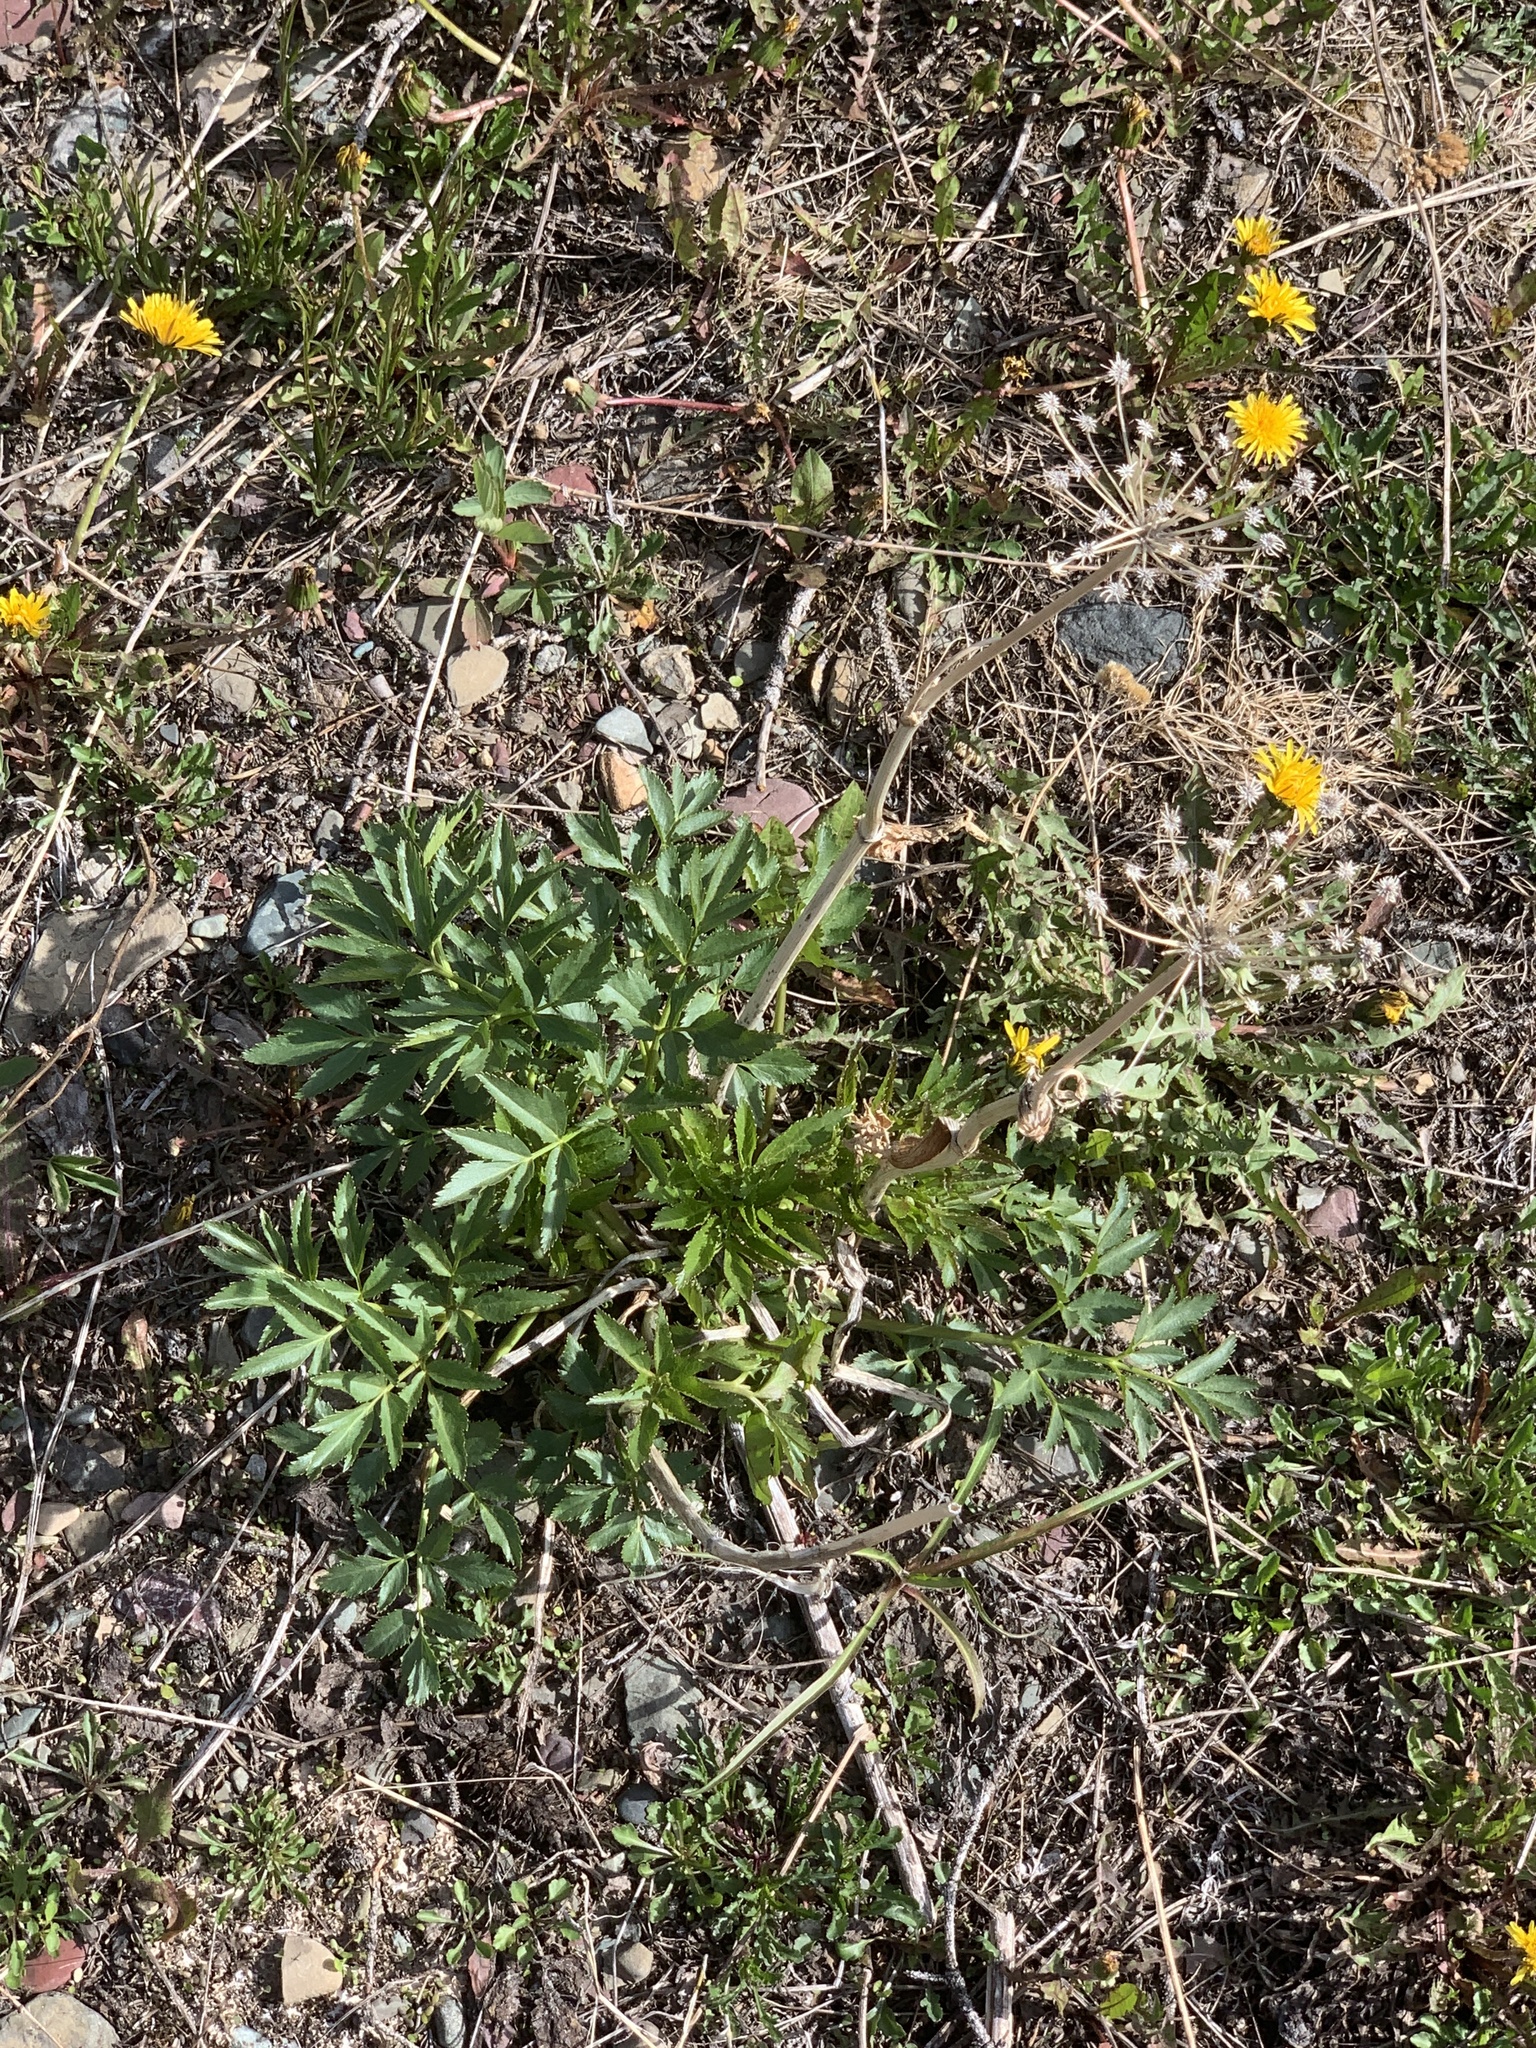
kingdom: Plantae
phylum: Tracheophyta
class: Magnoliopsida
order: Apiales
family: Apiaceae
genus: Angelica
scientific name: Angelica arguta
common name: Lyall's angelica
